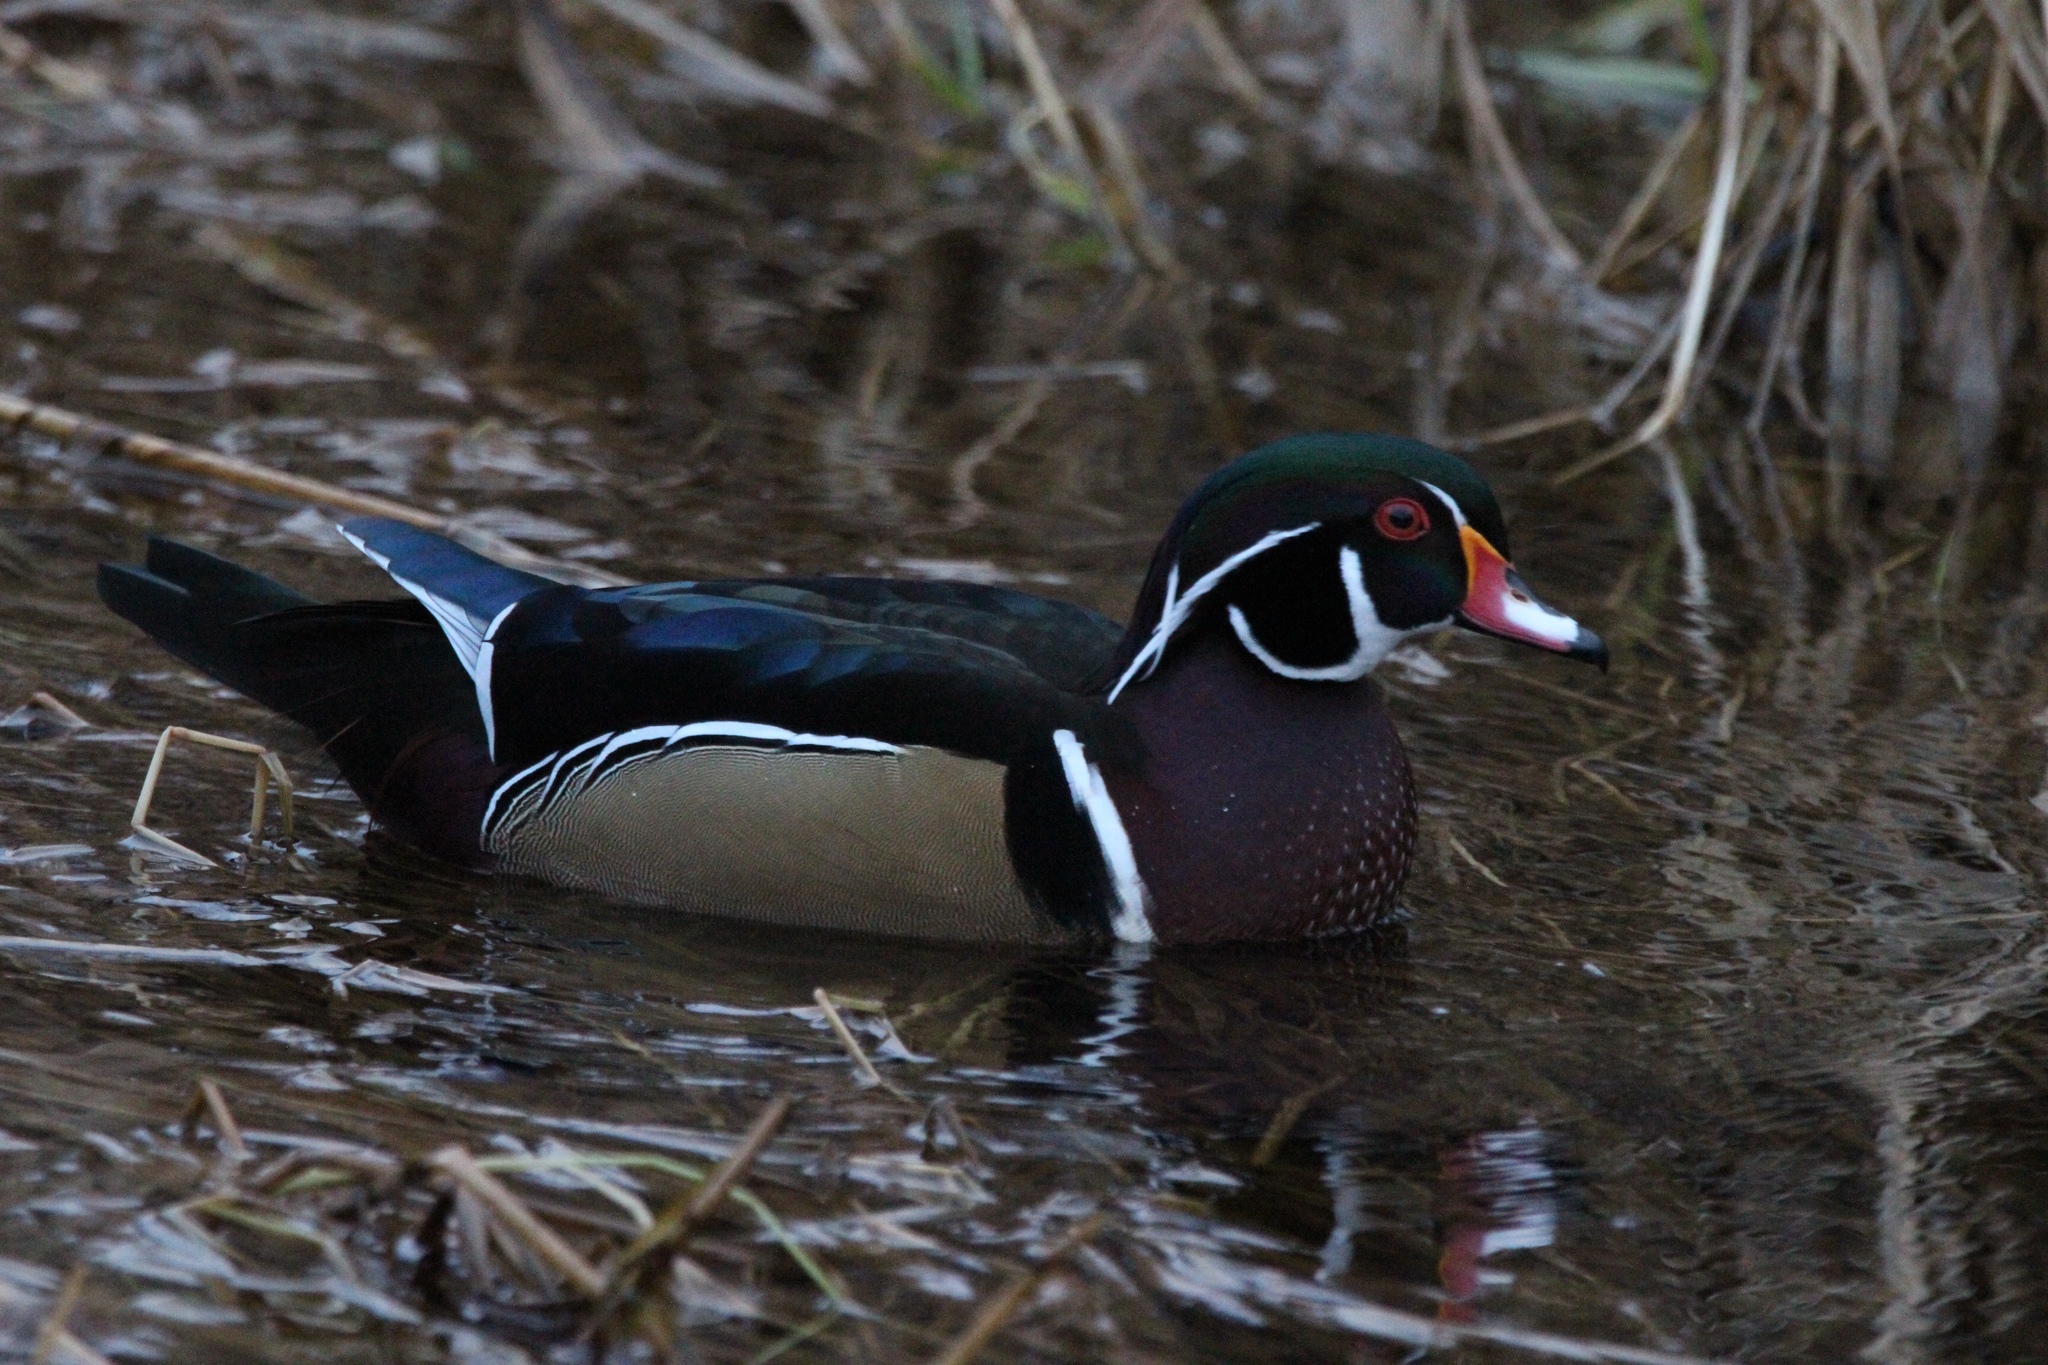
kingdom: Animalia
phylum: Chordata
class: Aves
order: Anseriformes
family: Anatidae
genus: Aix
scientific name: Aix sponsa
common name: Wood duck
